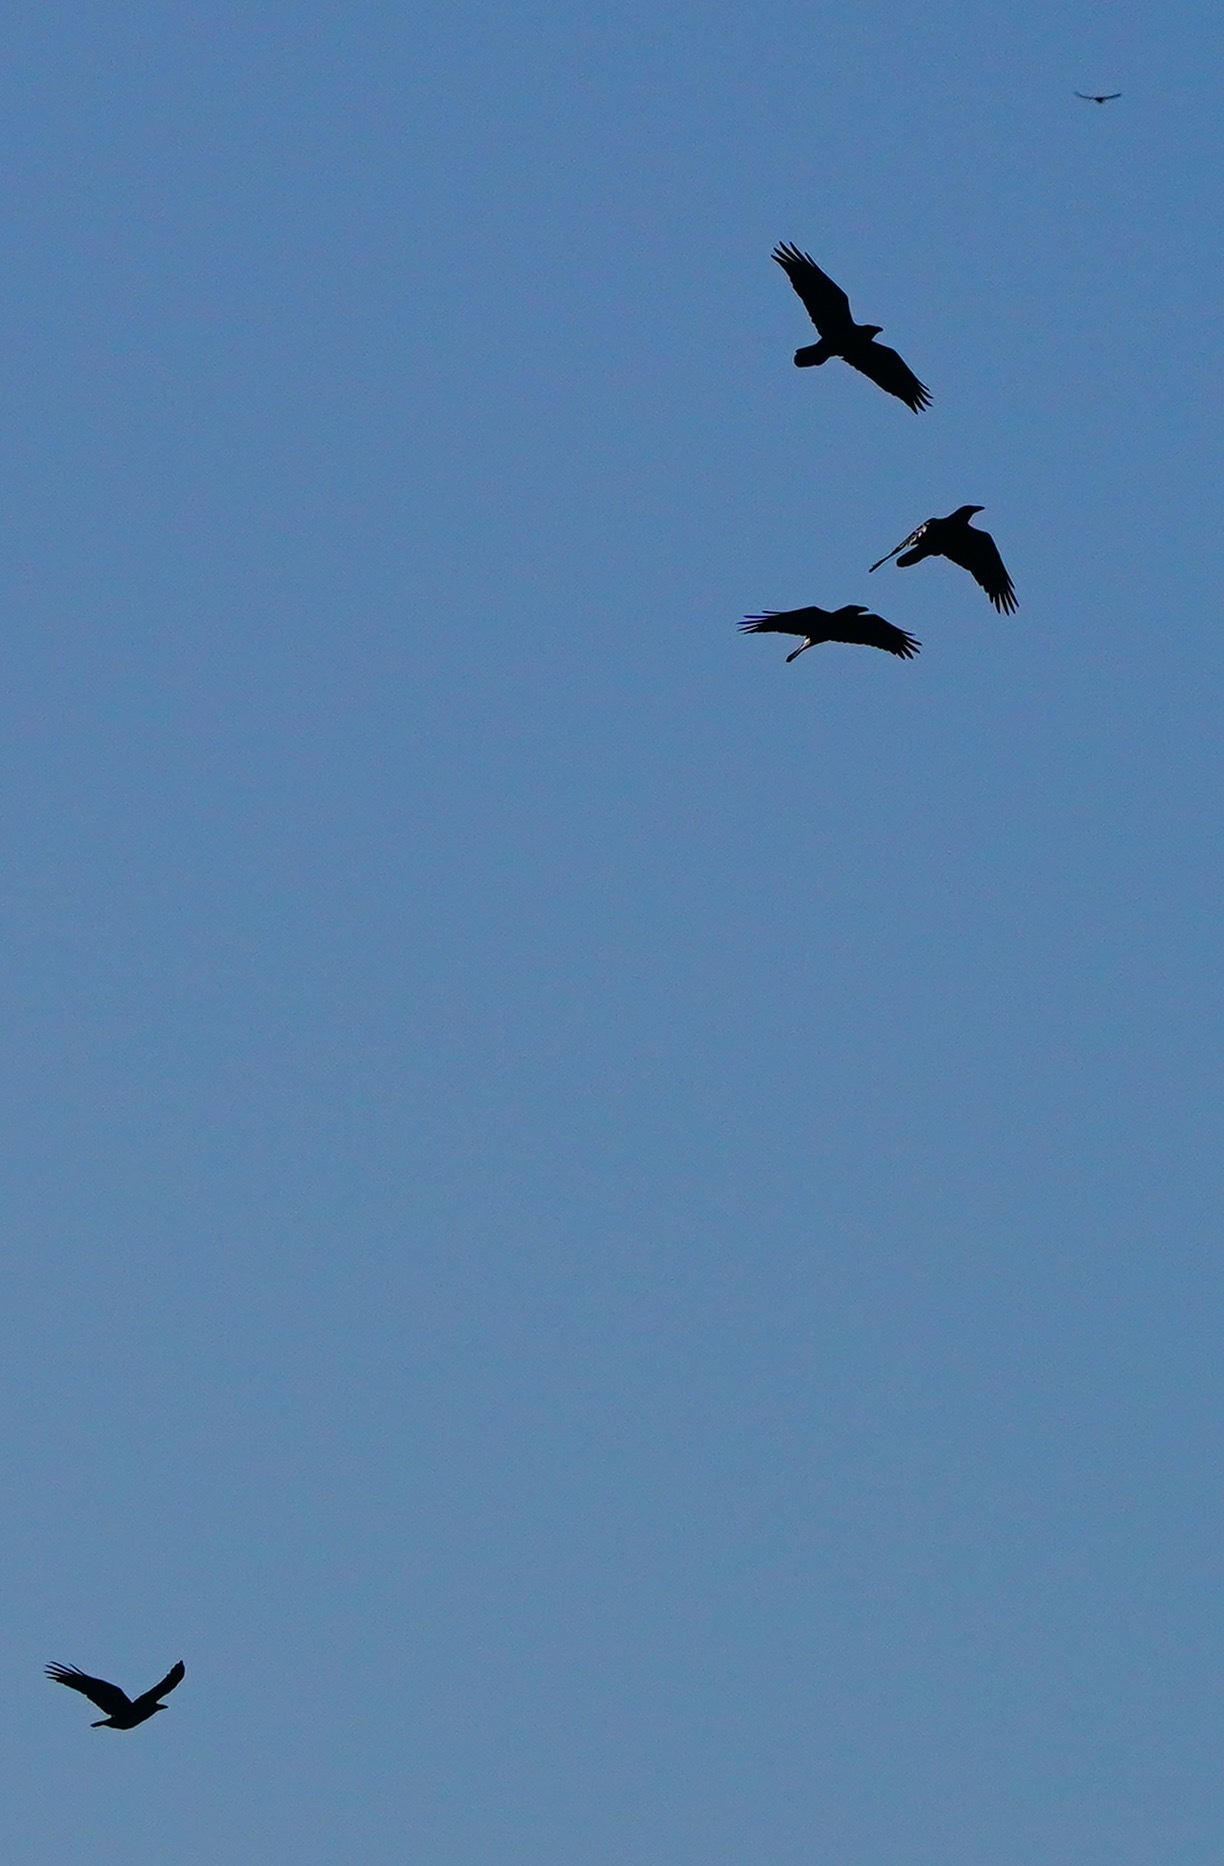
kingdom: Animalia
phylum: Chordata
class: Aves
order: Passeriformes
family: Corvidae
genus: Corvus
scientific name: Corvus corax
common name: Common raven
